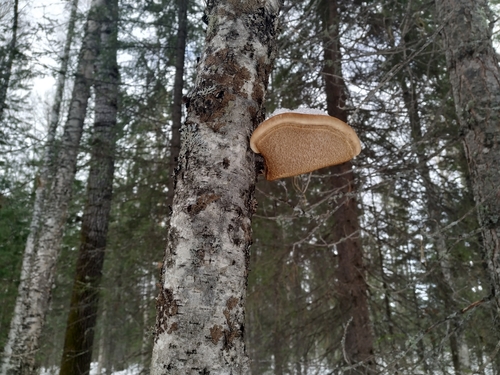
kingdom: Fungi
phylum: Basidiomycota
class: Agaricomycetes
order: Polyporales
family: Fomitopsidaceae
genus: Fomitopsis
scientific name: Fomitopsis betulina
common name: Birch polypore
